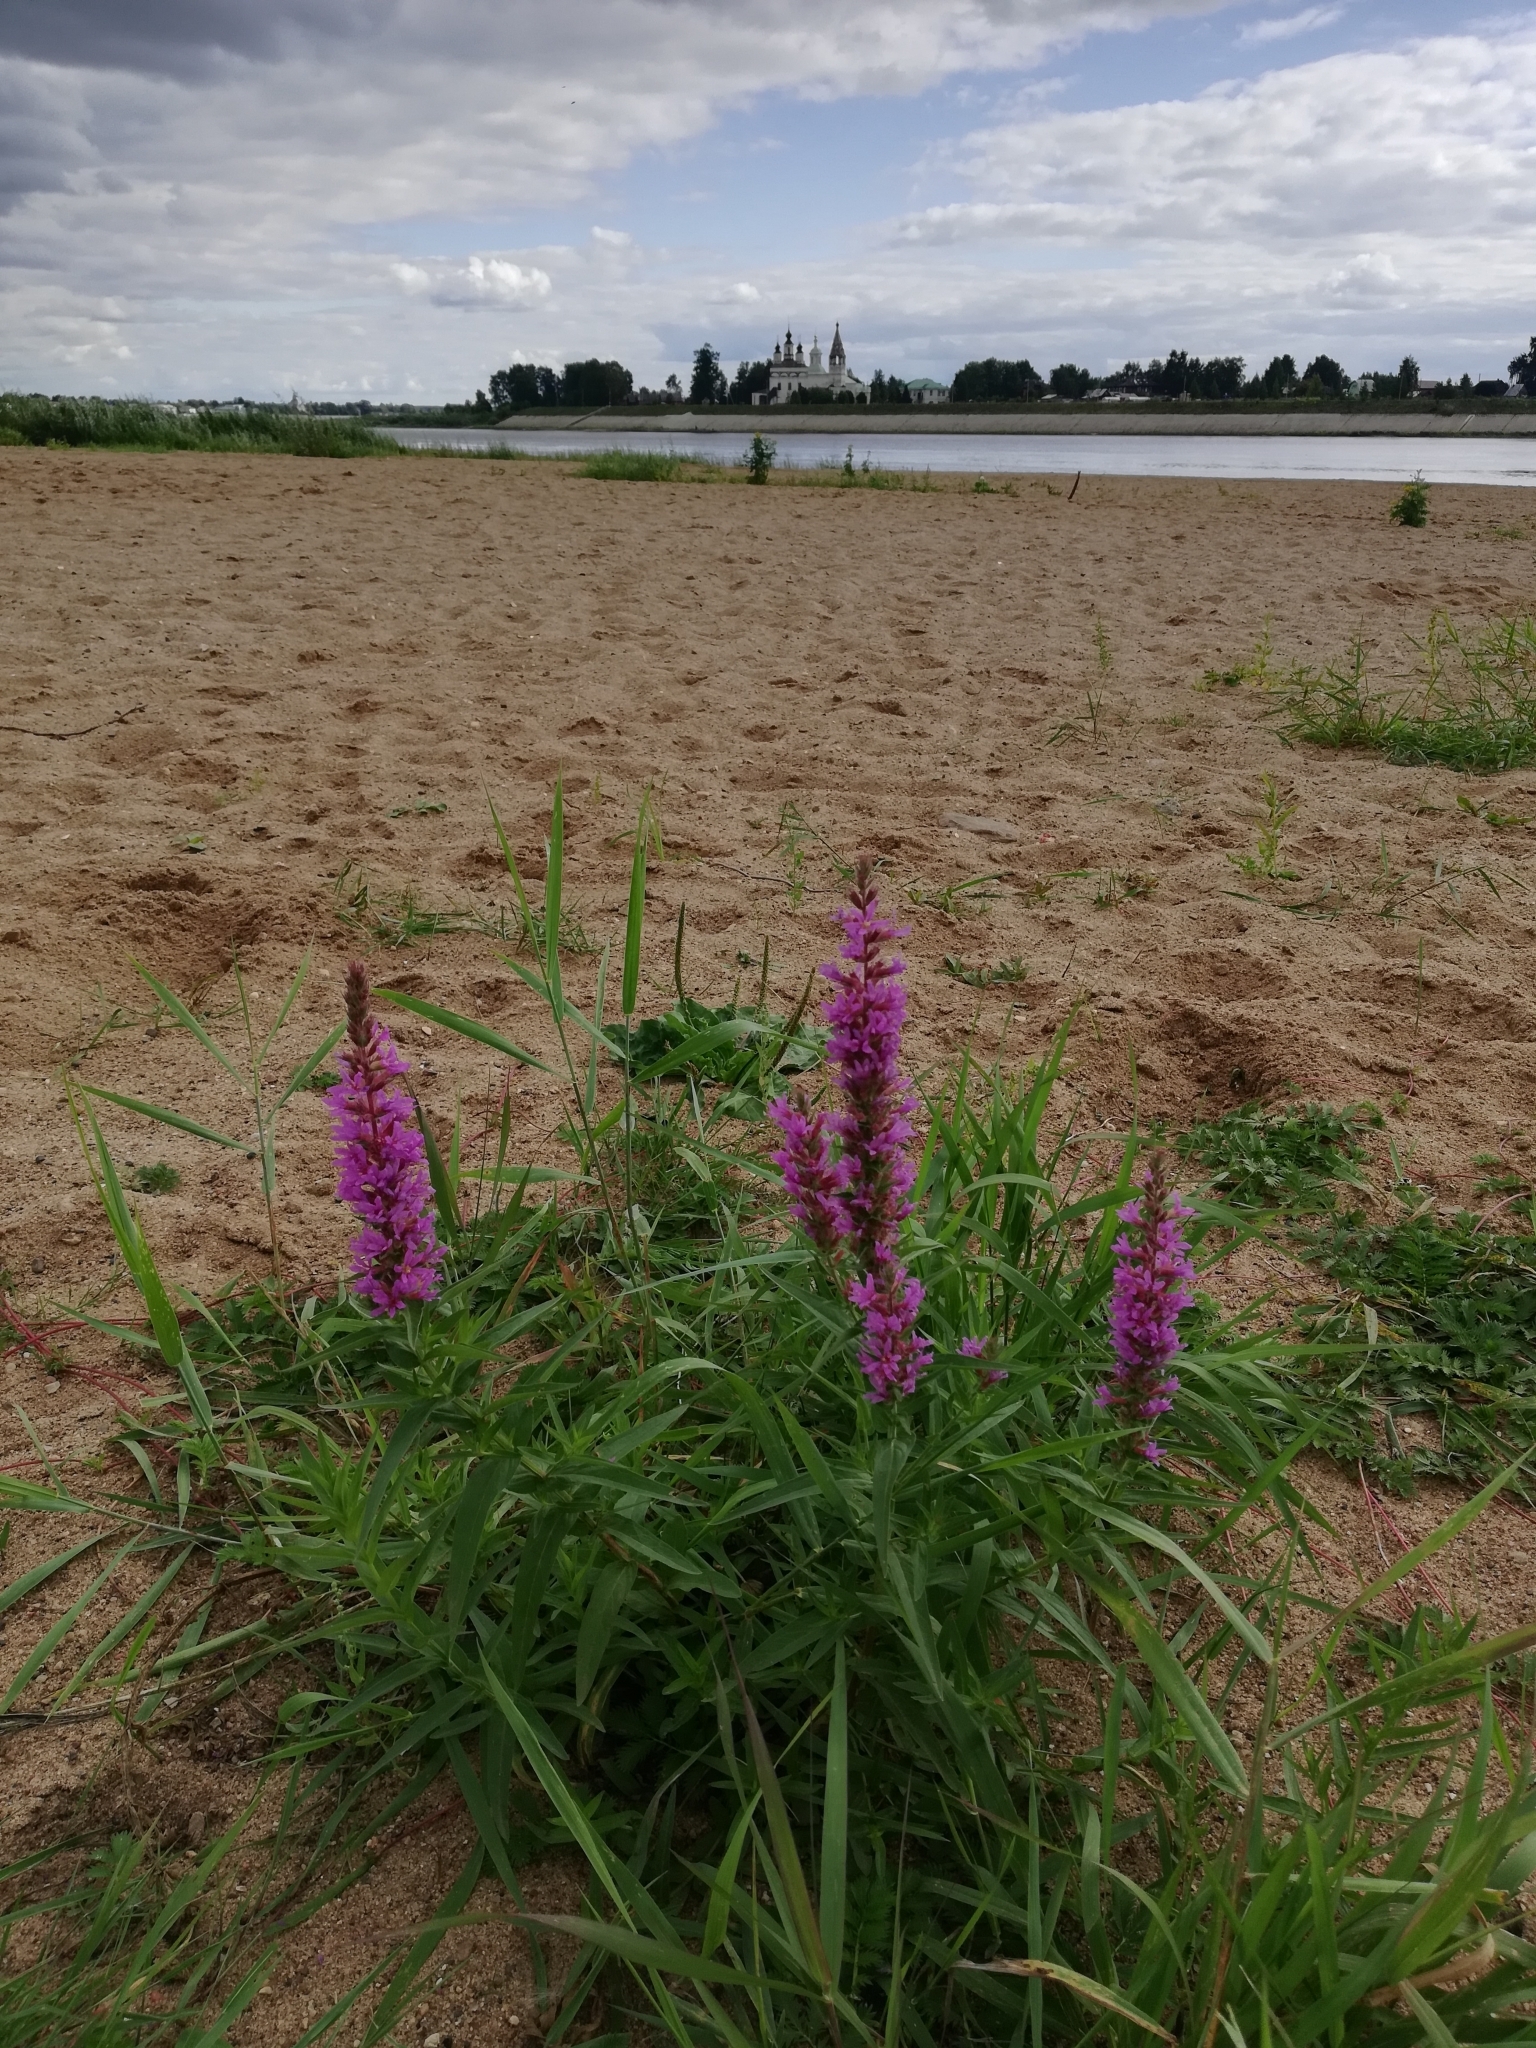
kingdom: Plantae
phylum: Tracheophyta
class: Magnoliopsida
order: Myrtales
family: Lythraceae
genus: Lythrum
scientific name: Lythrum salicaria
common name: Purple loosestrife
